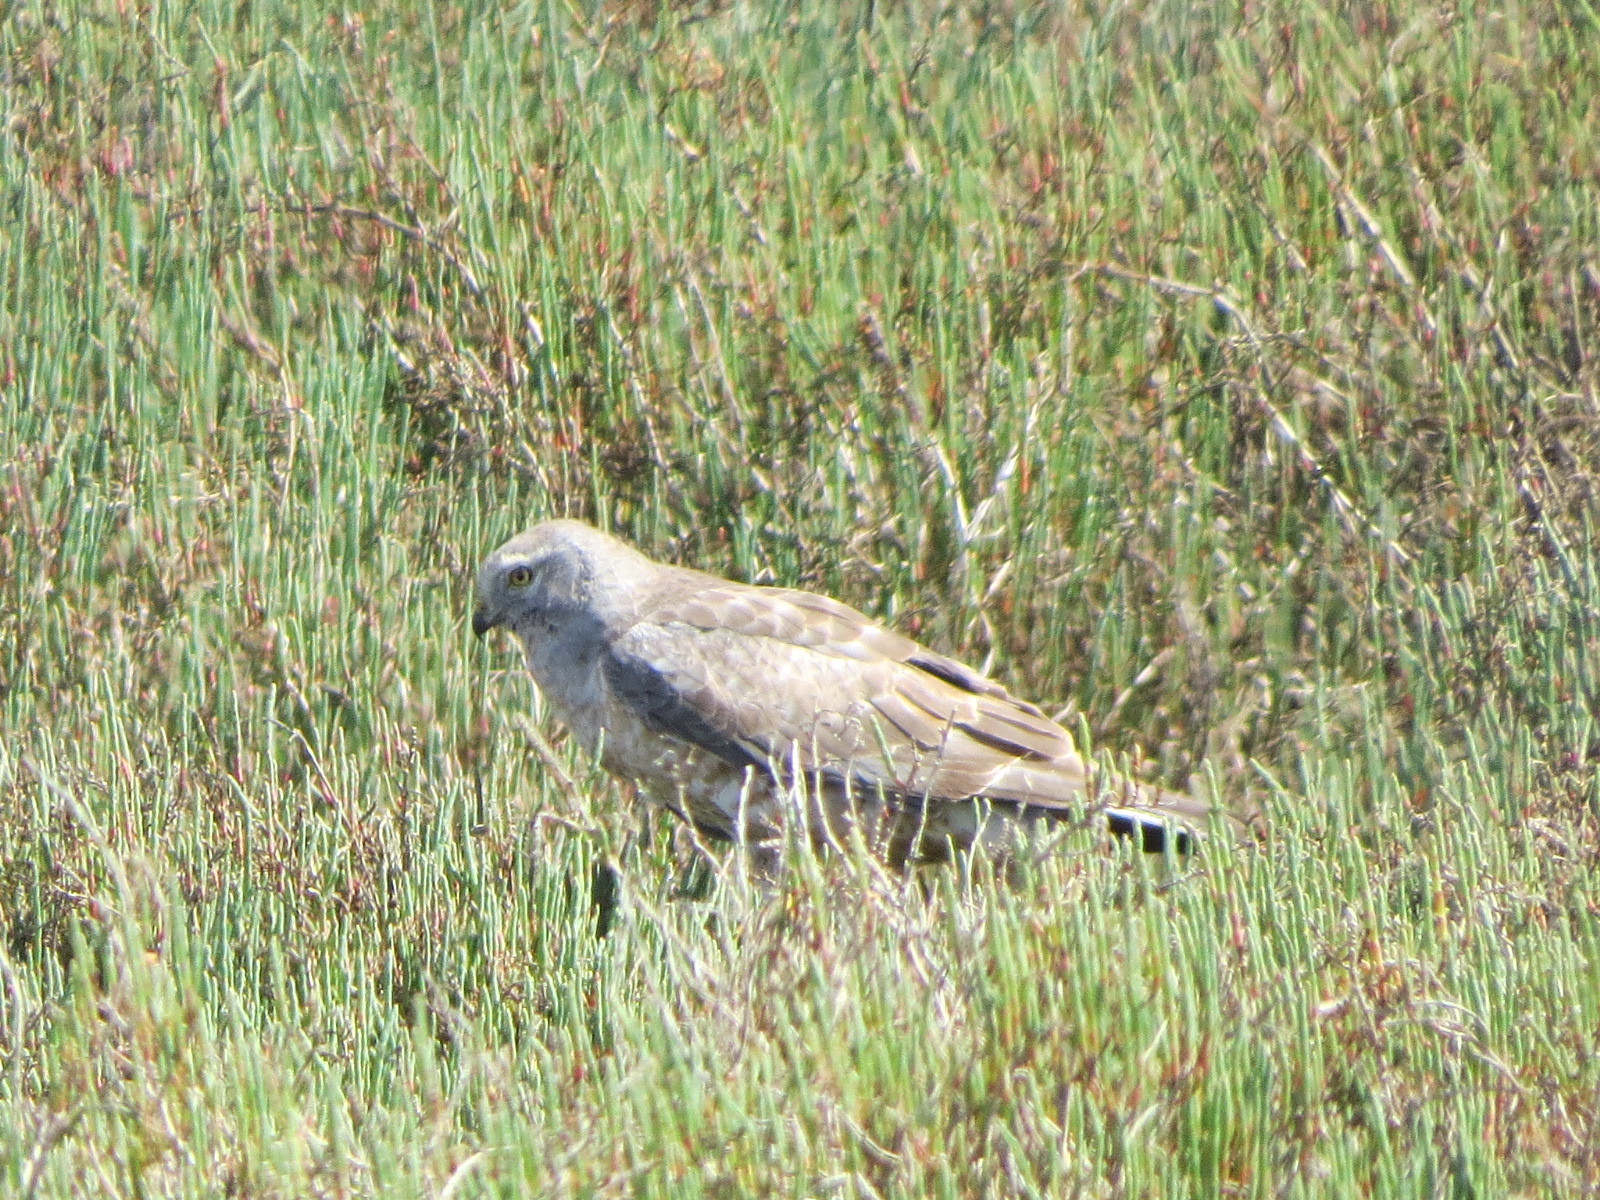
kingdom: Animalia
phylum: Chordata
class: Aves
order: Accipitriformes
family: Accipitridae
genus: Circus
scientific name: Circus cyaneus
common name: Hen harrier
